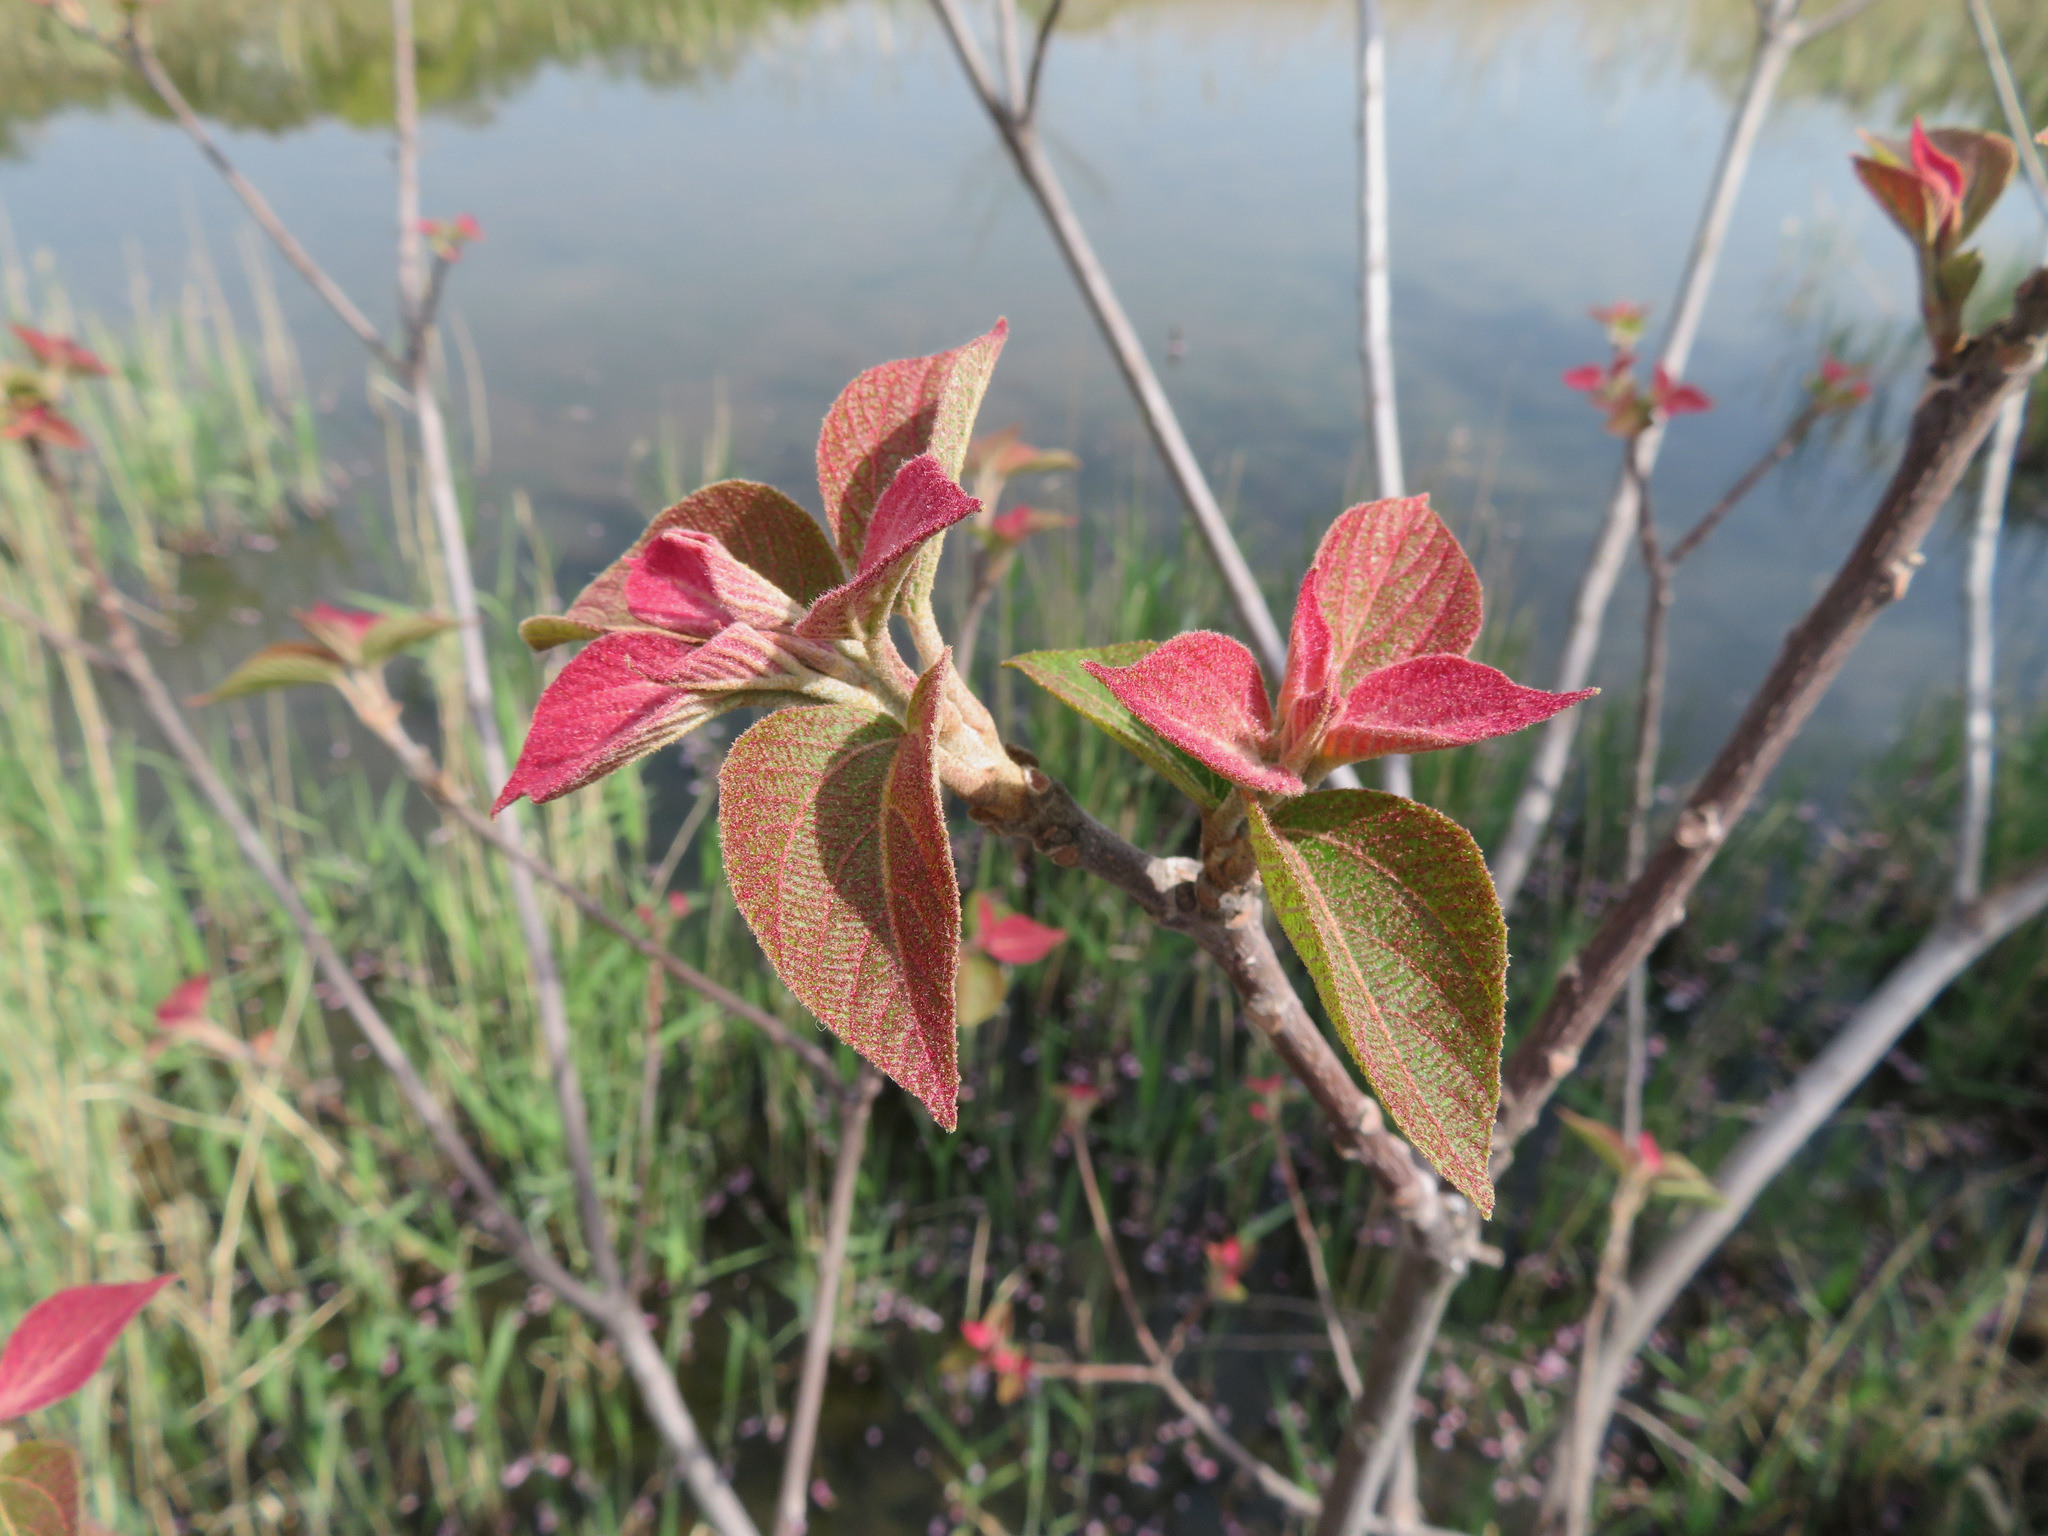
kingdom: Plantae
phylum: Tracheophyta
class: Magnoliopsida
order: Malpighiales
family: Euphorbiaceae
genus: Mallotus
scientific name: Mallotus japonicus
